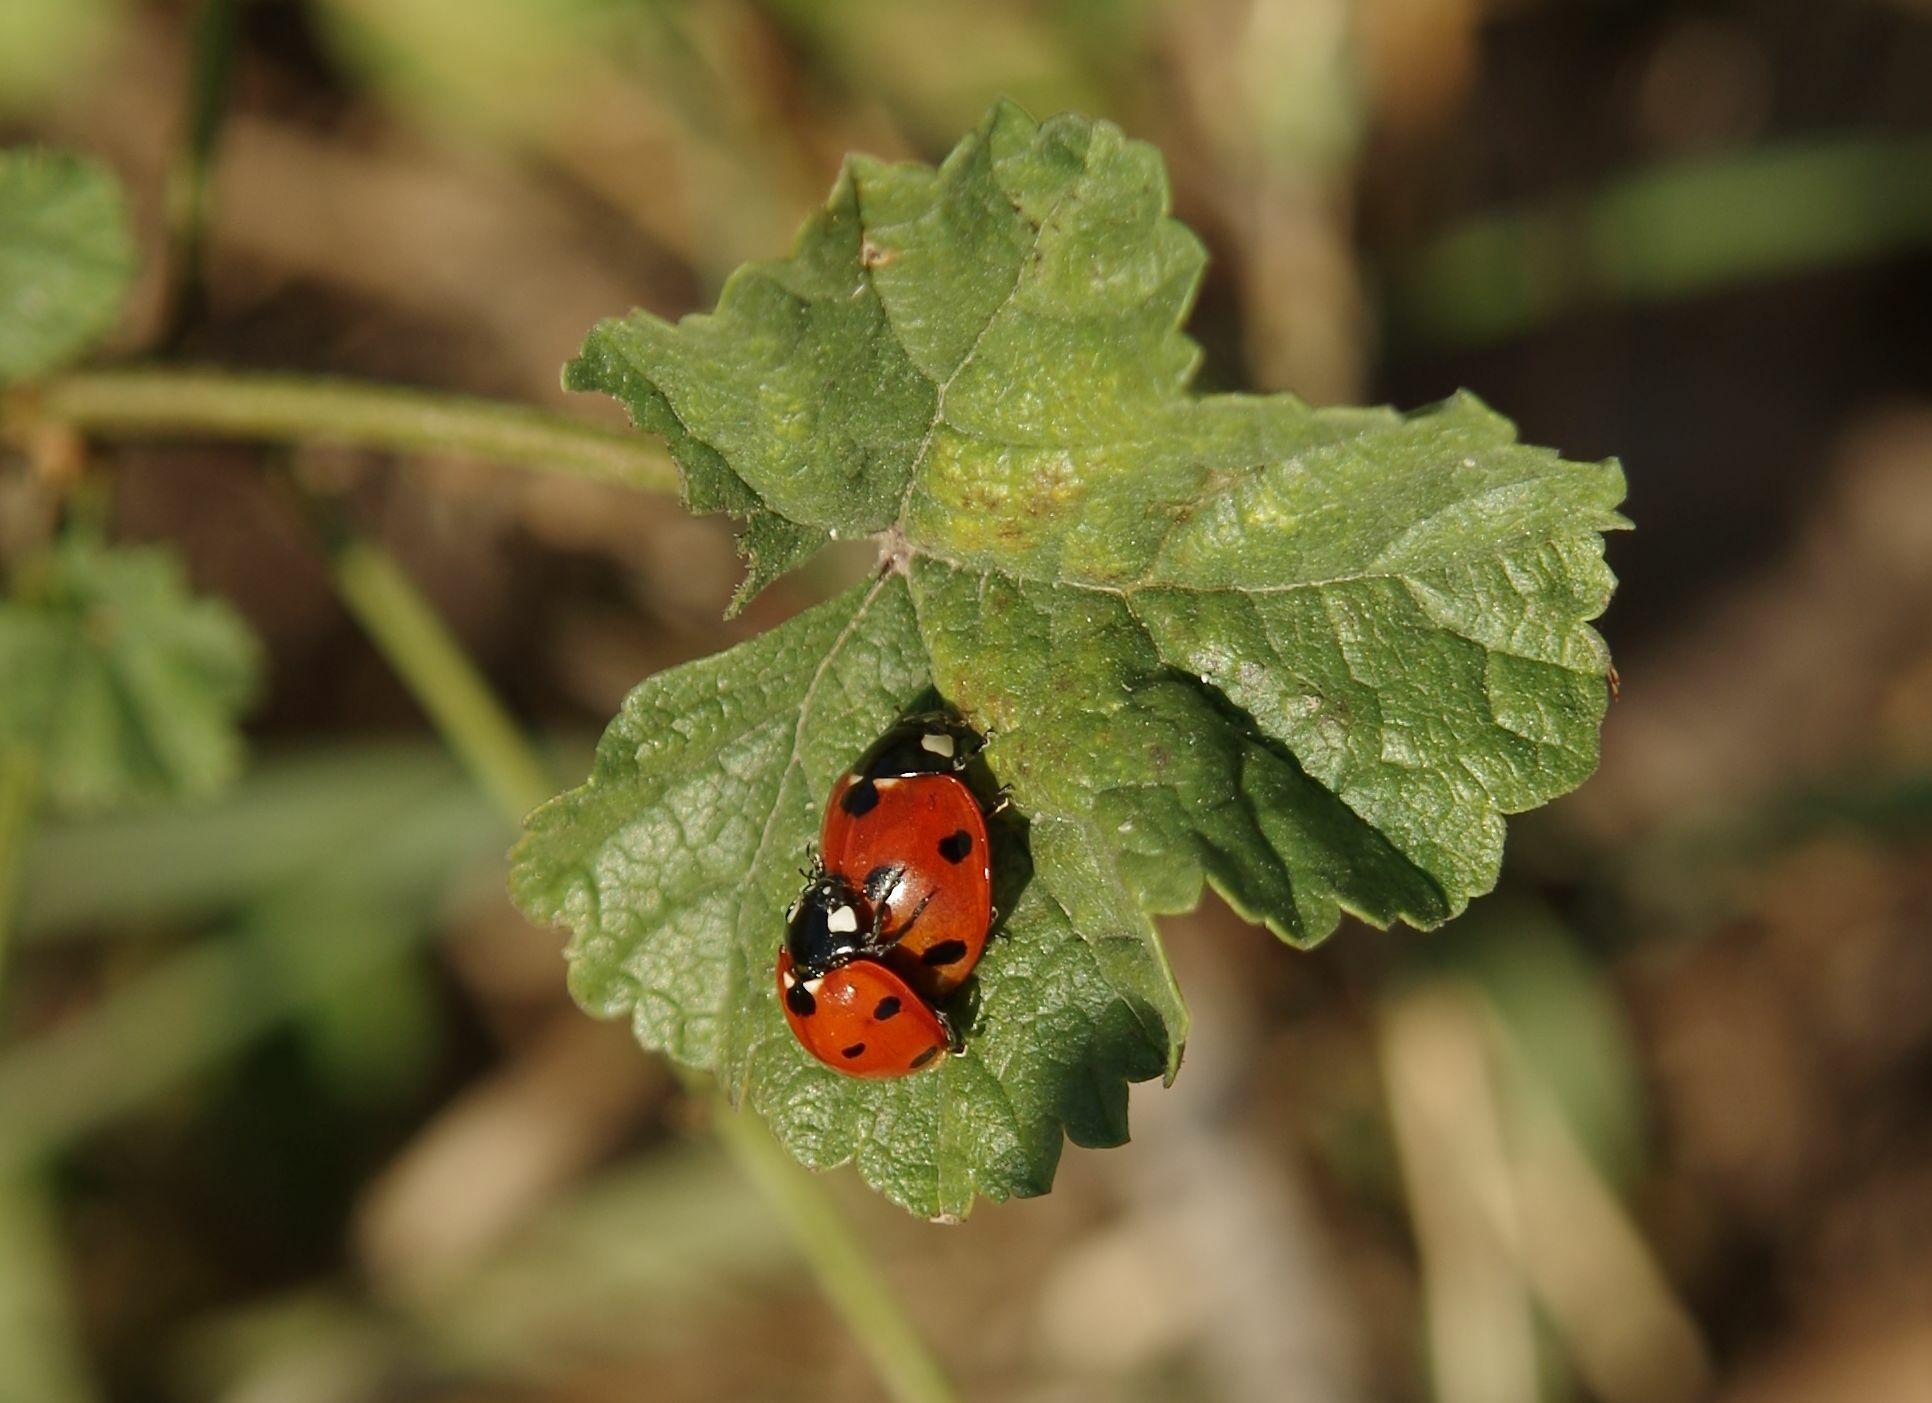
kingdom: Animalia
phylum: Arthropoda
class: Insecta
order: Coleoptera
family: Coccinellidae
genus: Coccinella
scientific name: Coccinella septempunctata
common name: Sevenspotted lady beetle
